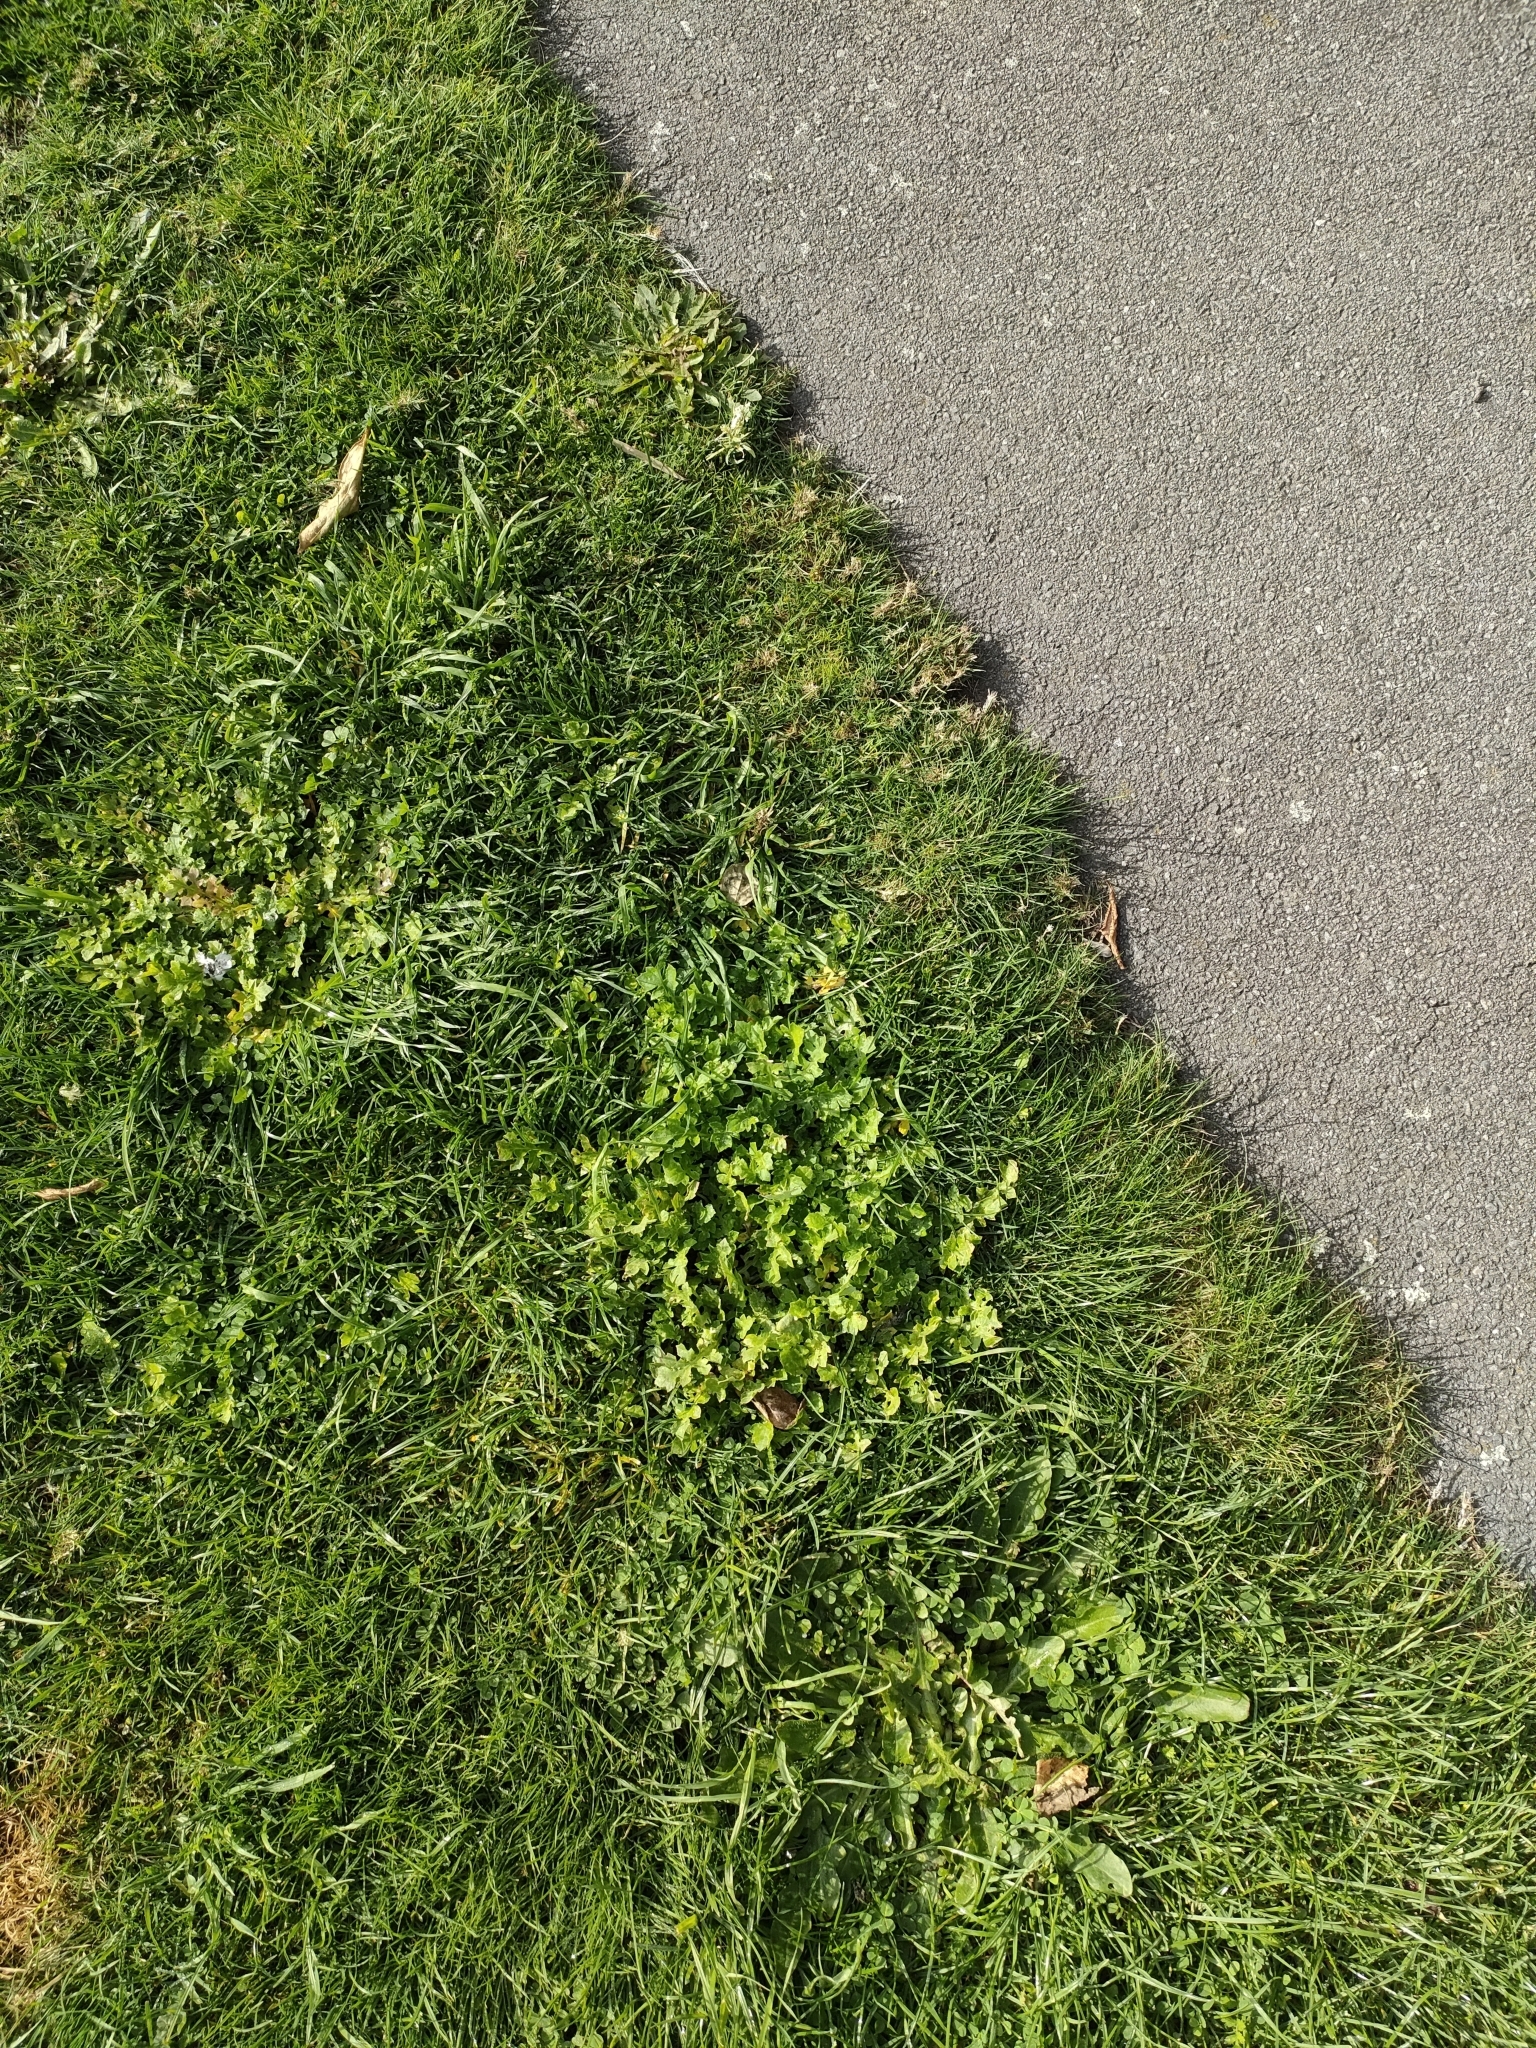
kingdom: Plantae
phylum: Tracheophyta
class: Magnoliopsida
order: Asterales
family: Asteraceae
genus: Arctotheca
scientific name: Arctotheca calendula
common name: Capeweed
